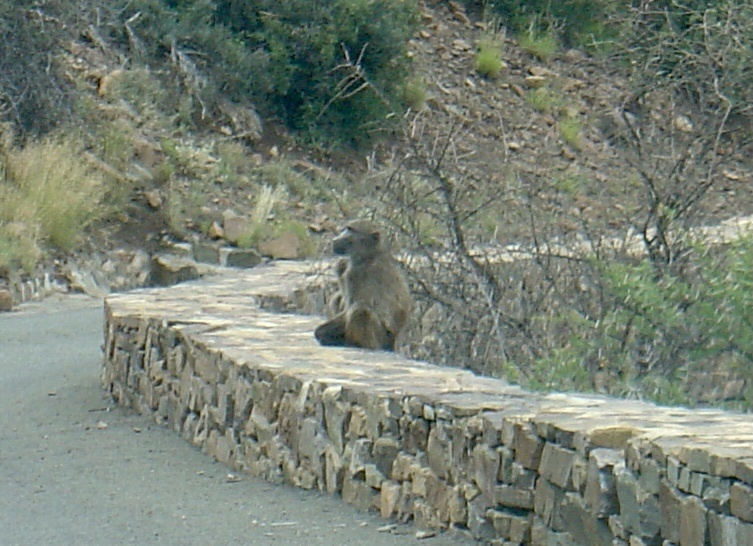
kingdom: Animalia
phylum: Chordata
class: Mammalia
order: Primates
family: Cercopithecidae
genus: Papio
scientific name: Papio ursinus
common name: Chacma baboon
